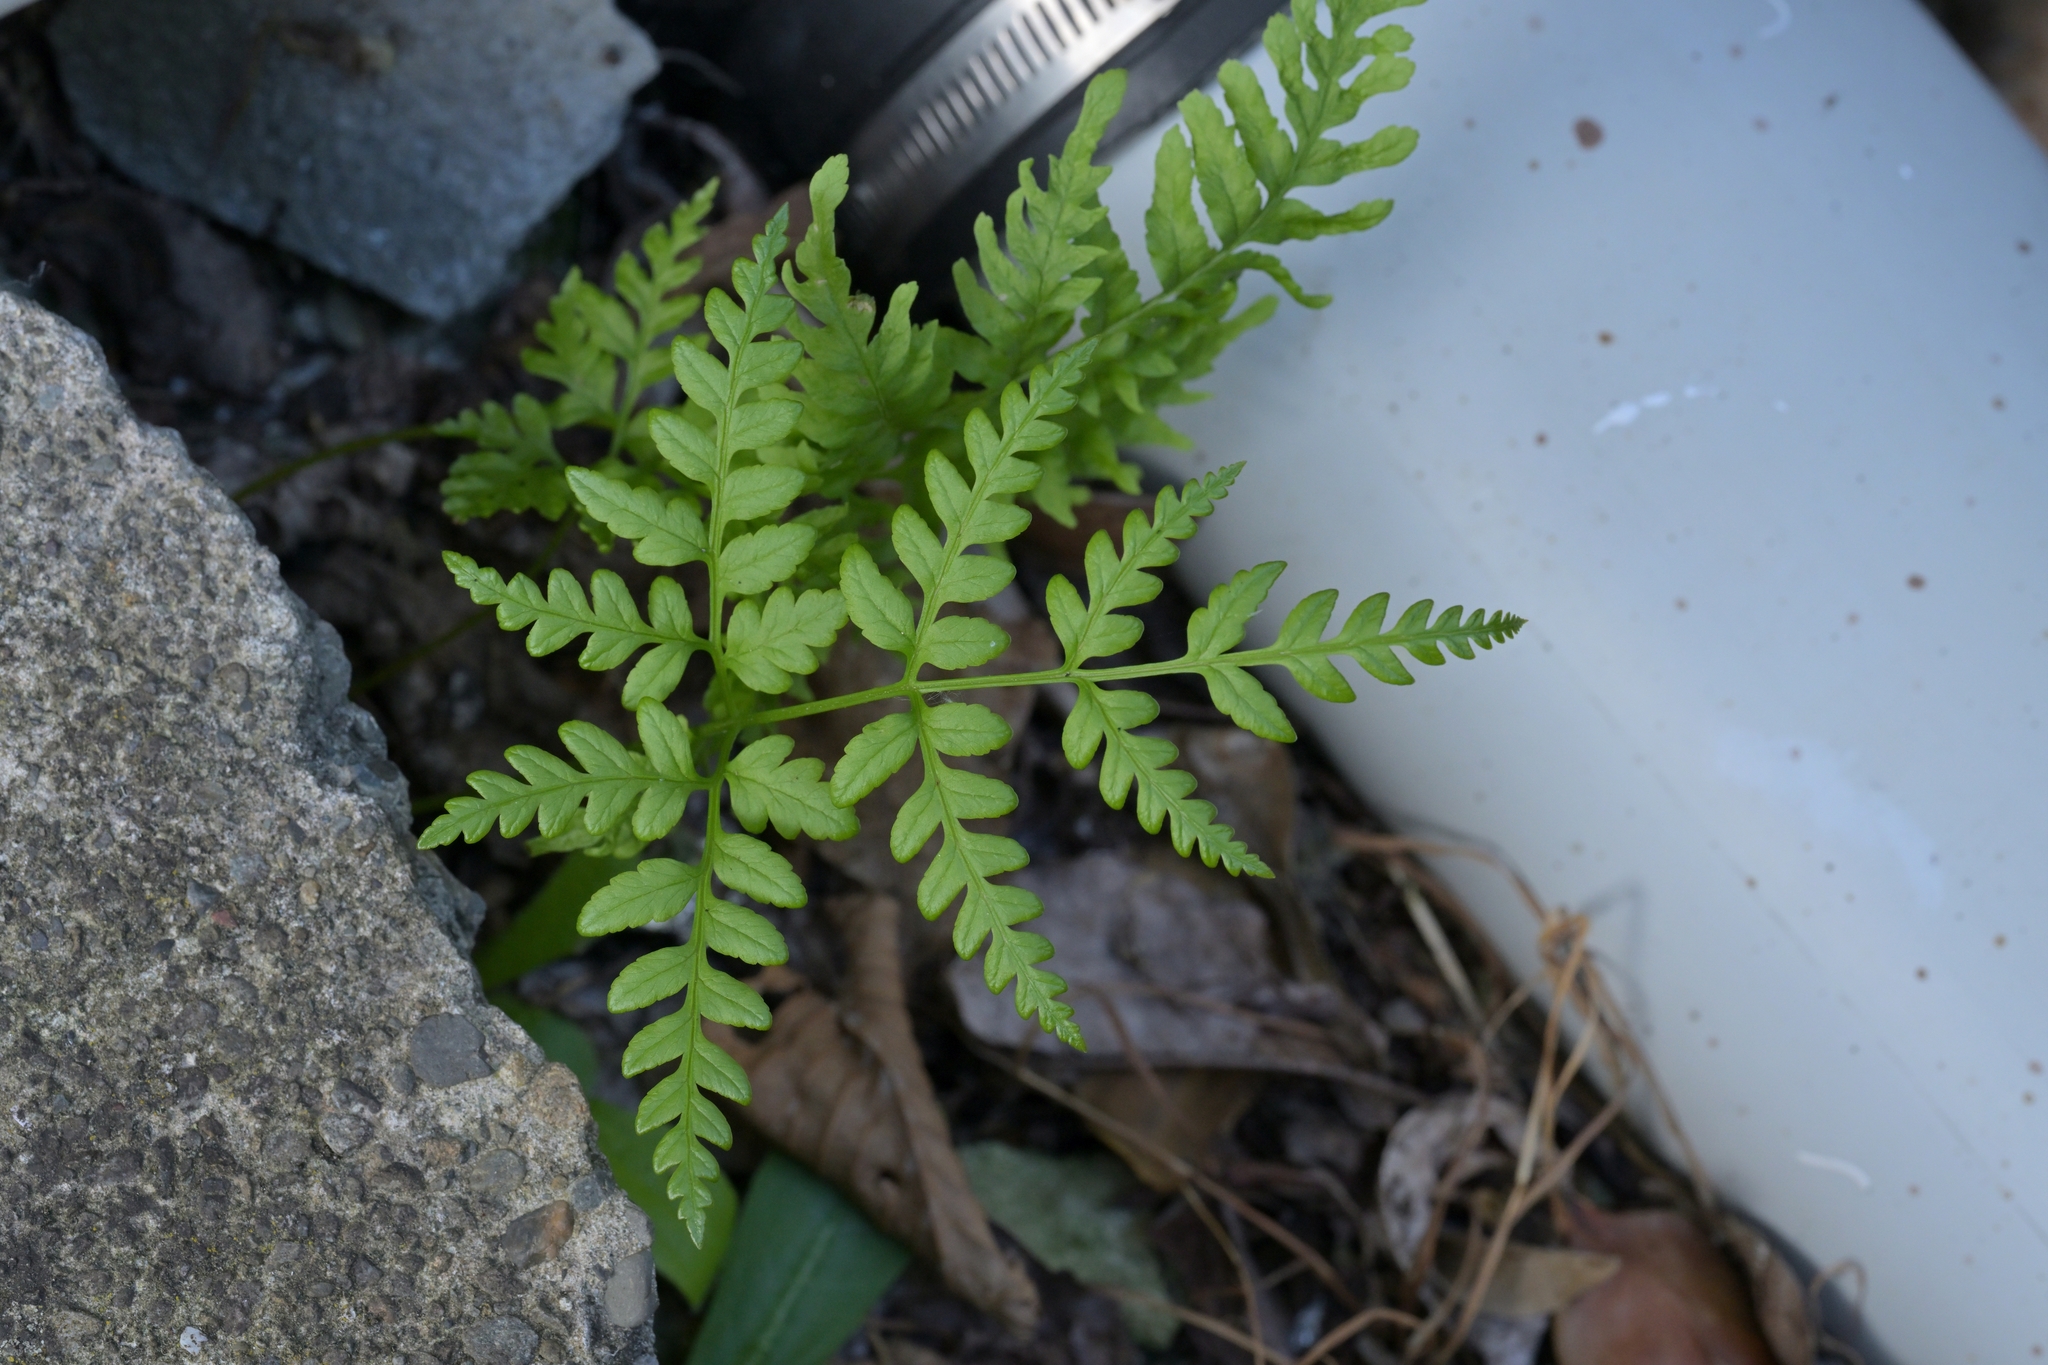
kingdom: Plantae
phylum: Tracheophyta
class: Polypodiopsida
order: Polypodiales
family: Pteridaceae
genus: Pteris
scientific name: Pteris tremula
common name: Australian brake
